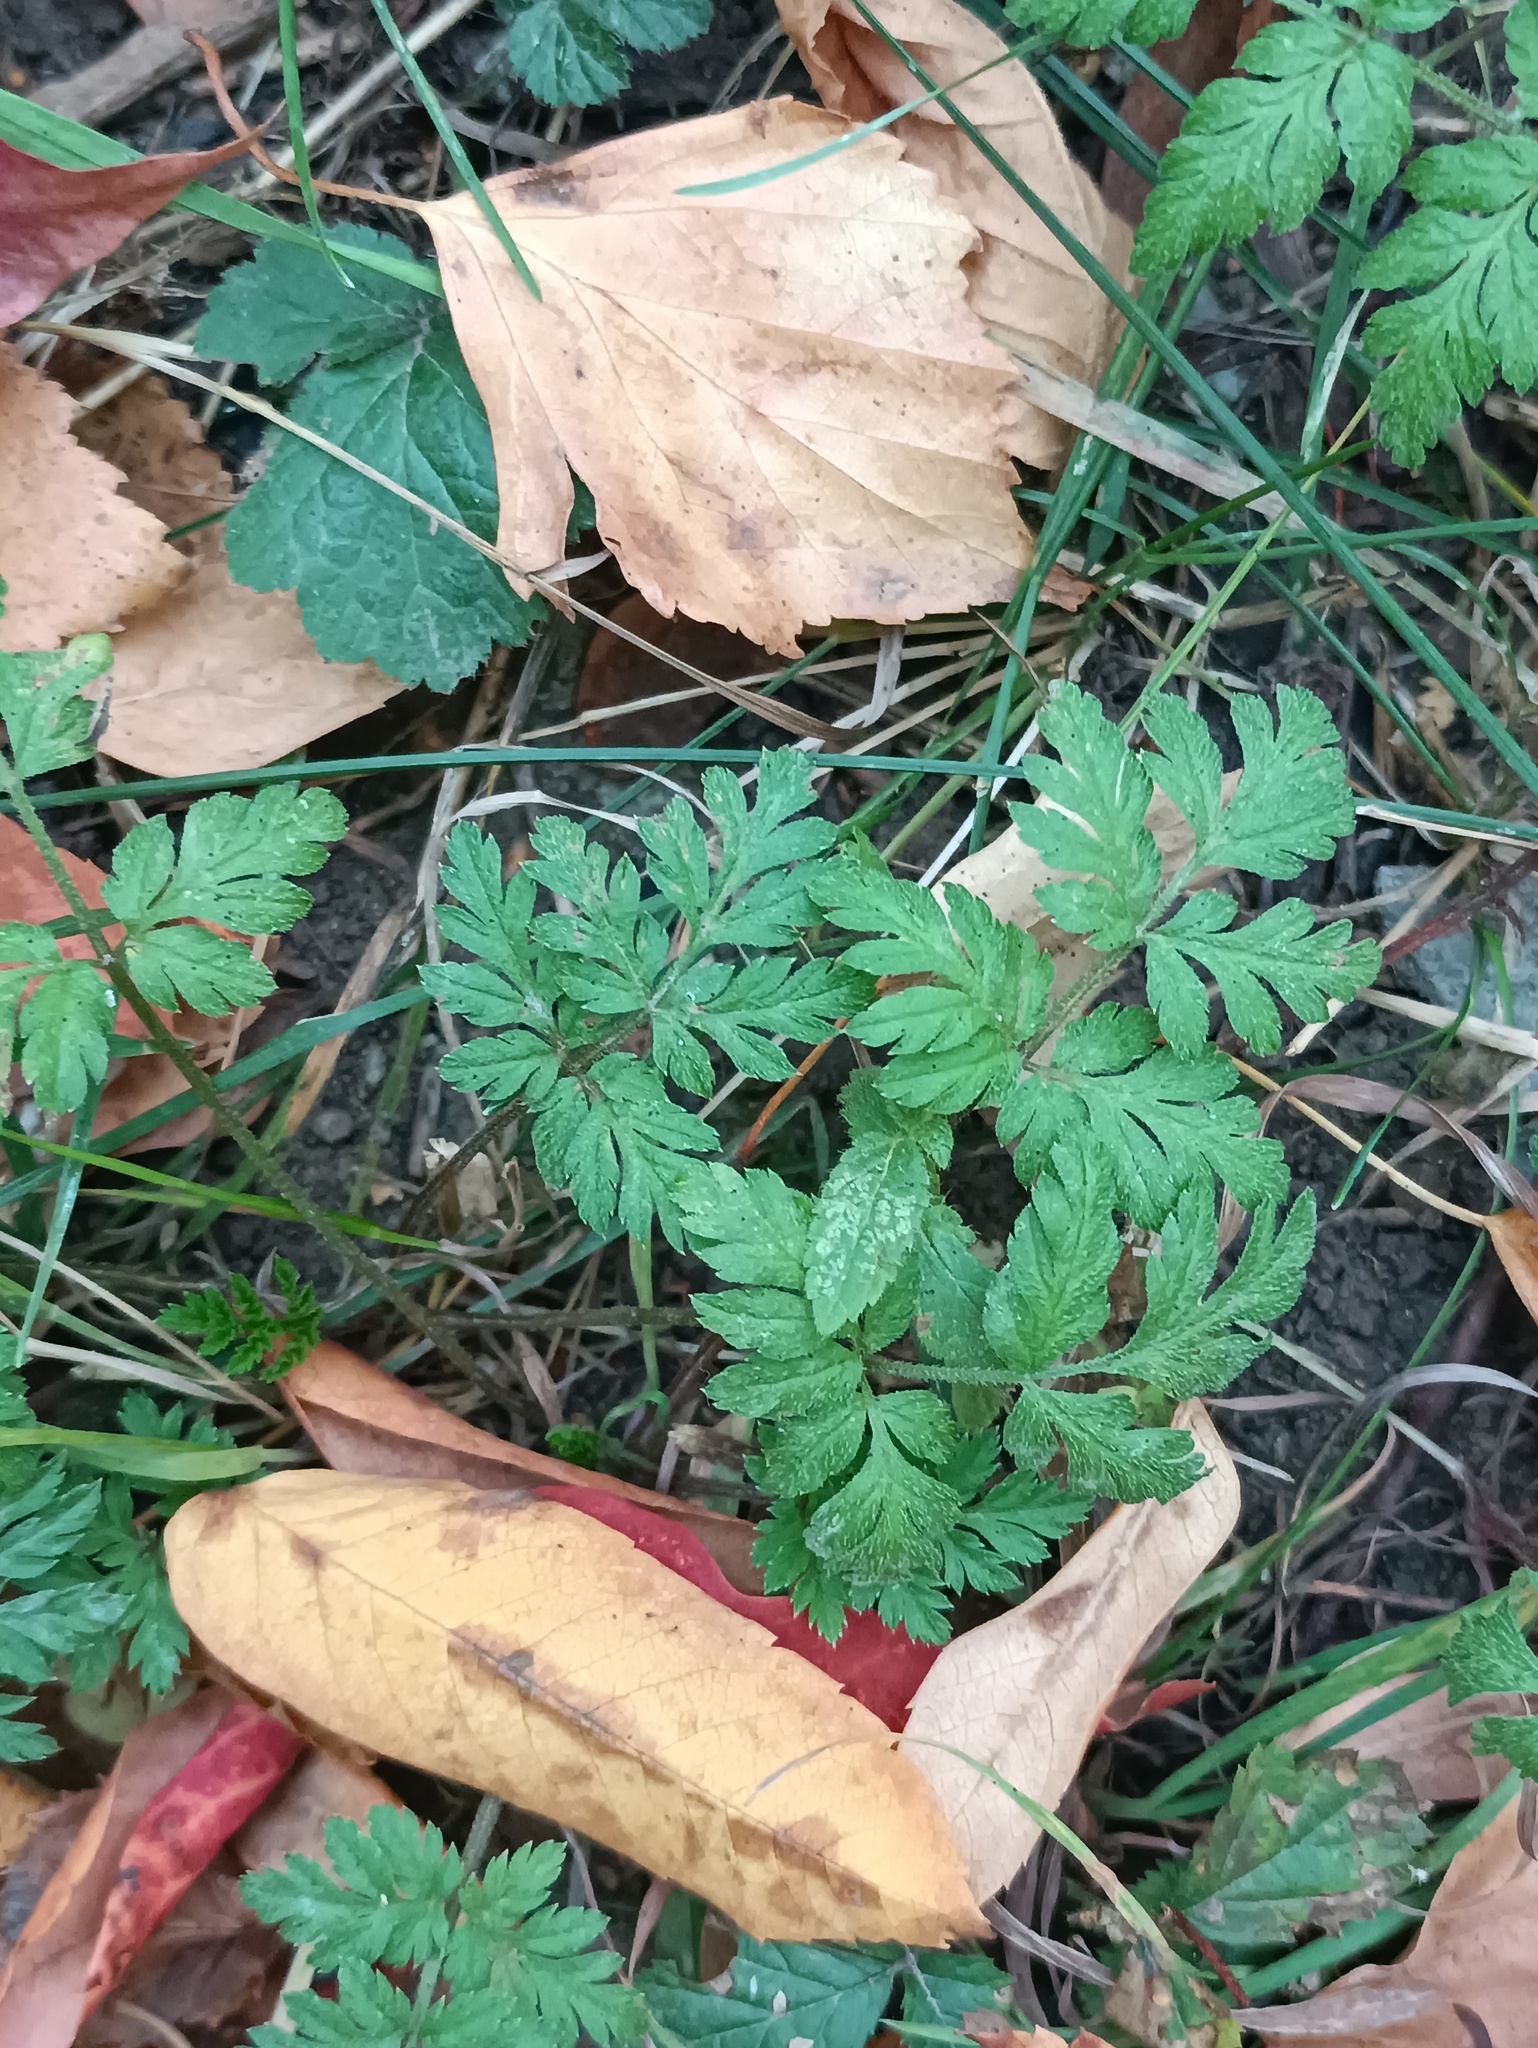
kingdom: Plantae
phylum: Tracheophyta
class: Magnoliopsida
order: Apiales
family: Apiaceae
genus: Torilis
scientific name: Torilis japonica
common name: Upright hedge-parsley
